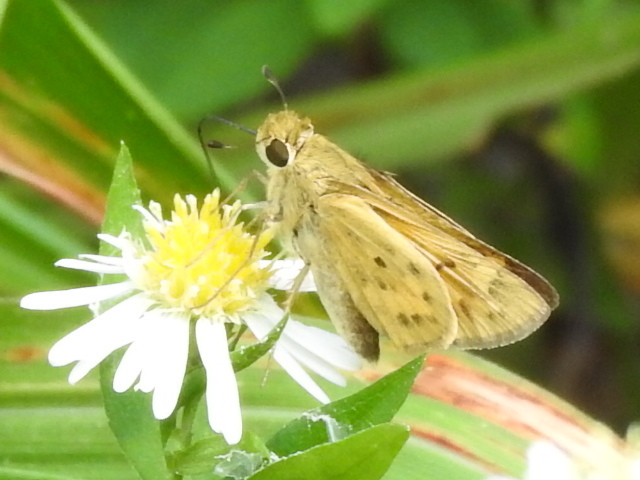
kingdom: Animalia
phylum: Arthropoda
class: Insecta
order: Lepidoptera
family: Hesperiidae
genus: Hylephila
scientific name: Hylephila phyleus
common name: Fiery skipper
